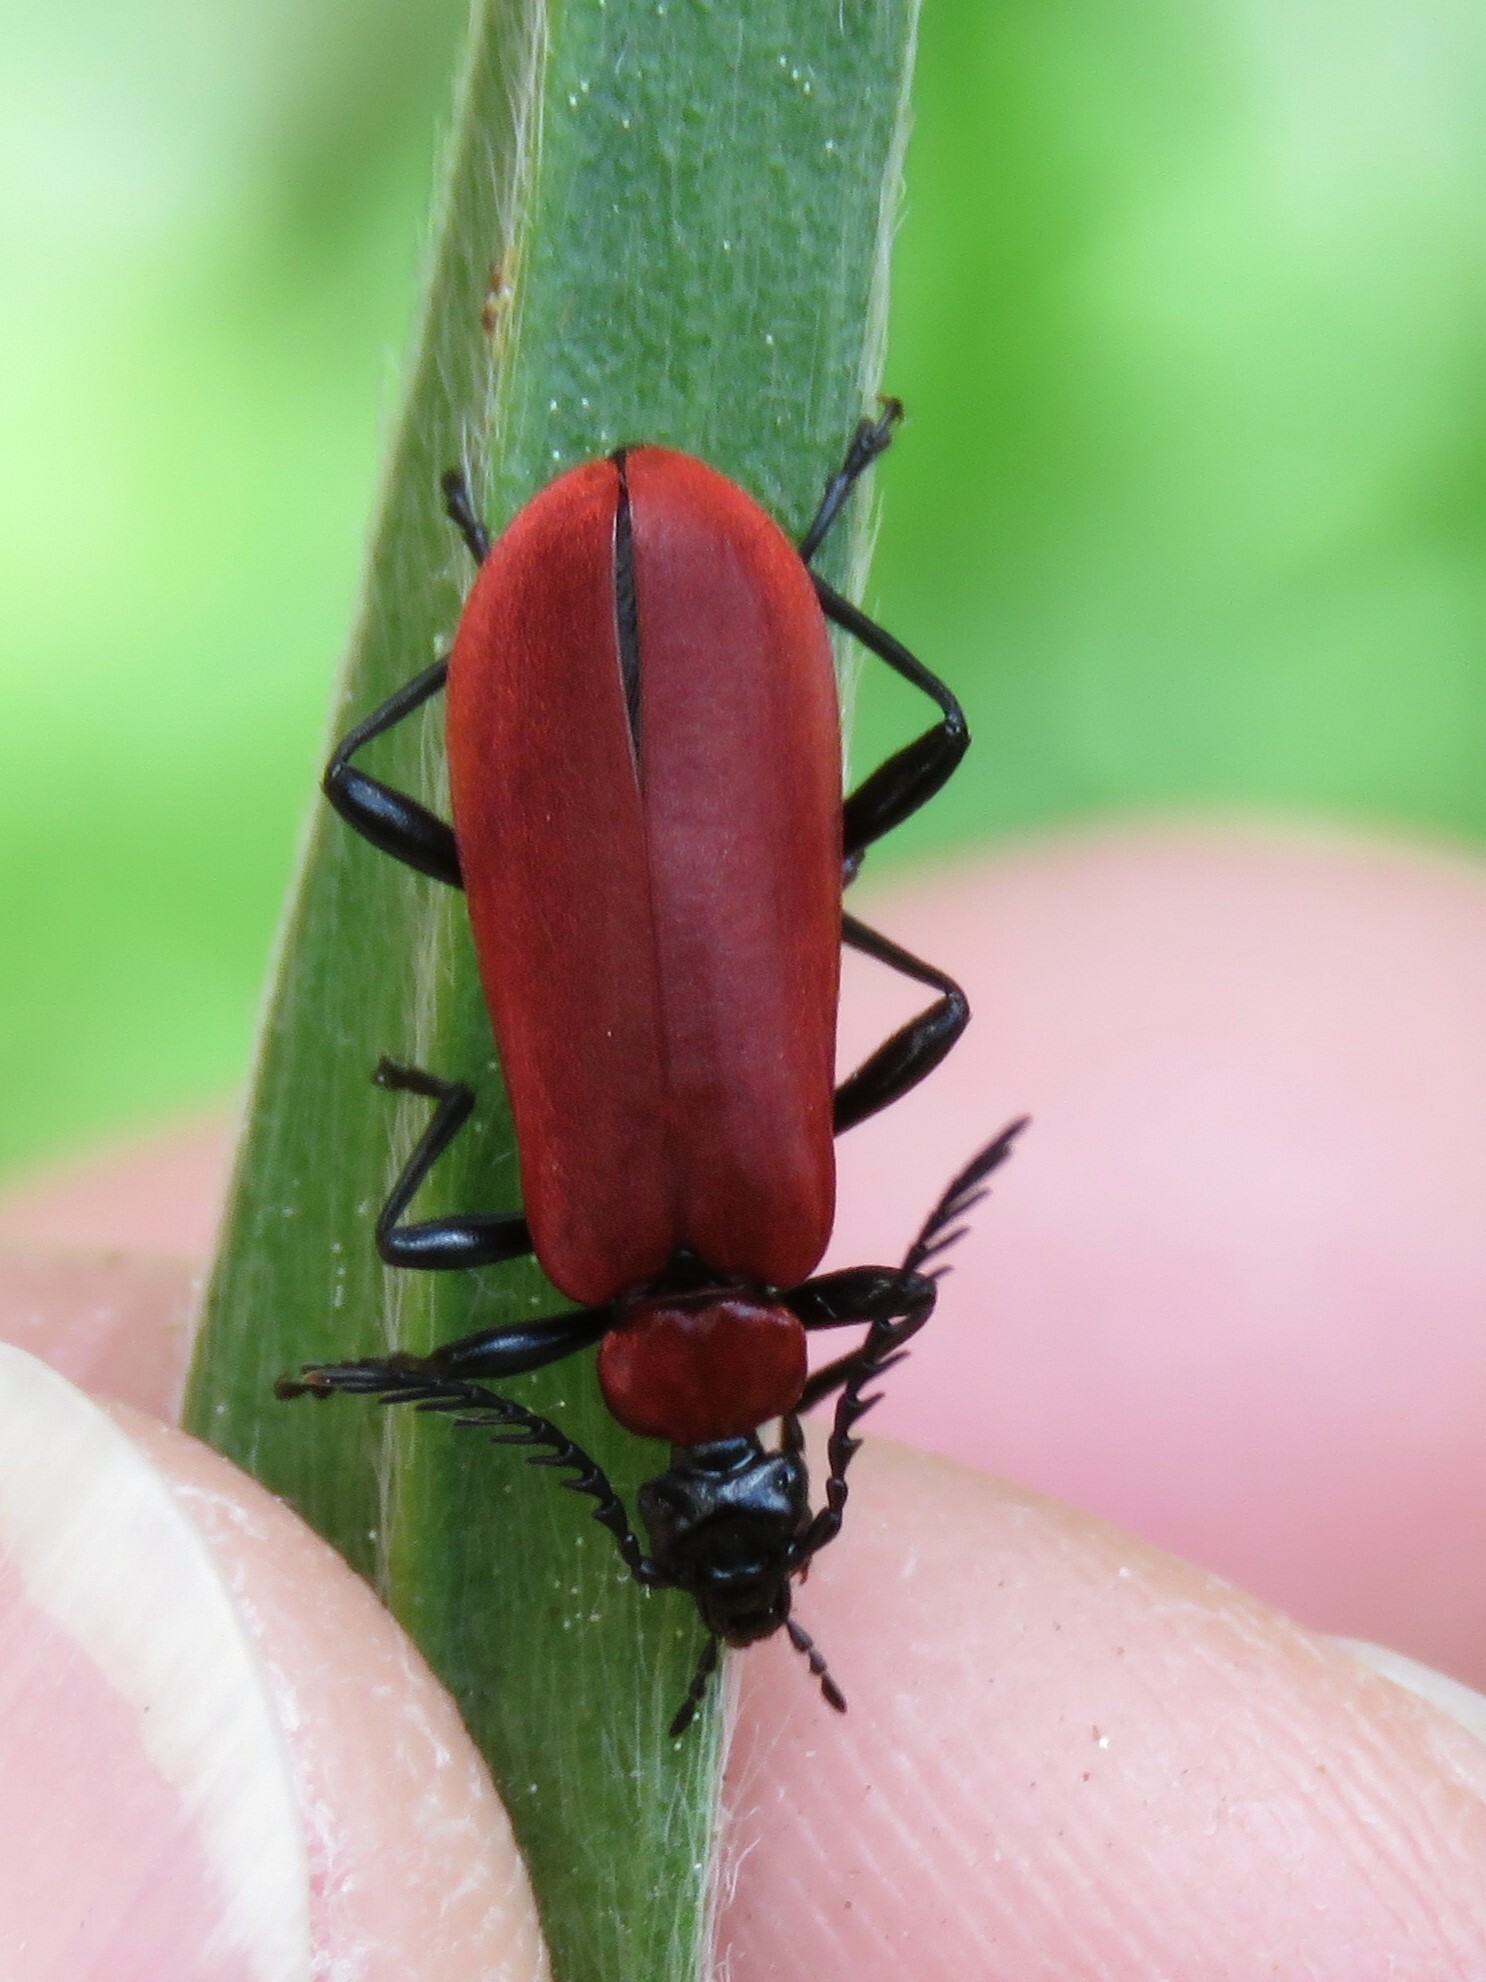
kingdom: Animalia
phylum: Arthropoda
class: Insecta
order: Coleoptera
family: Pyrochroidae
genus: Pyrochroa
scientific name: Pyrochroa coccinea
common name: Black-headed cardinal beetle
